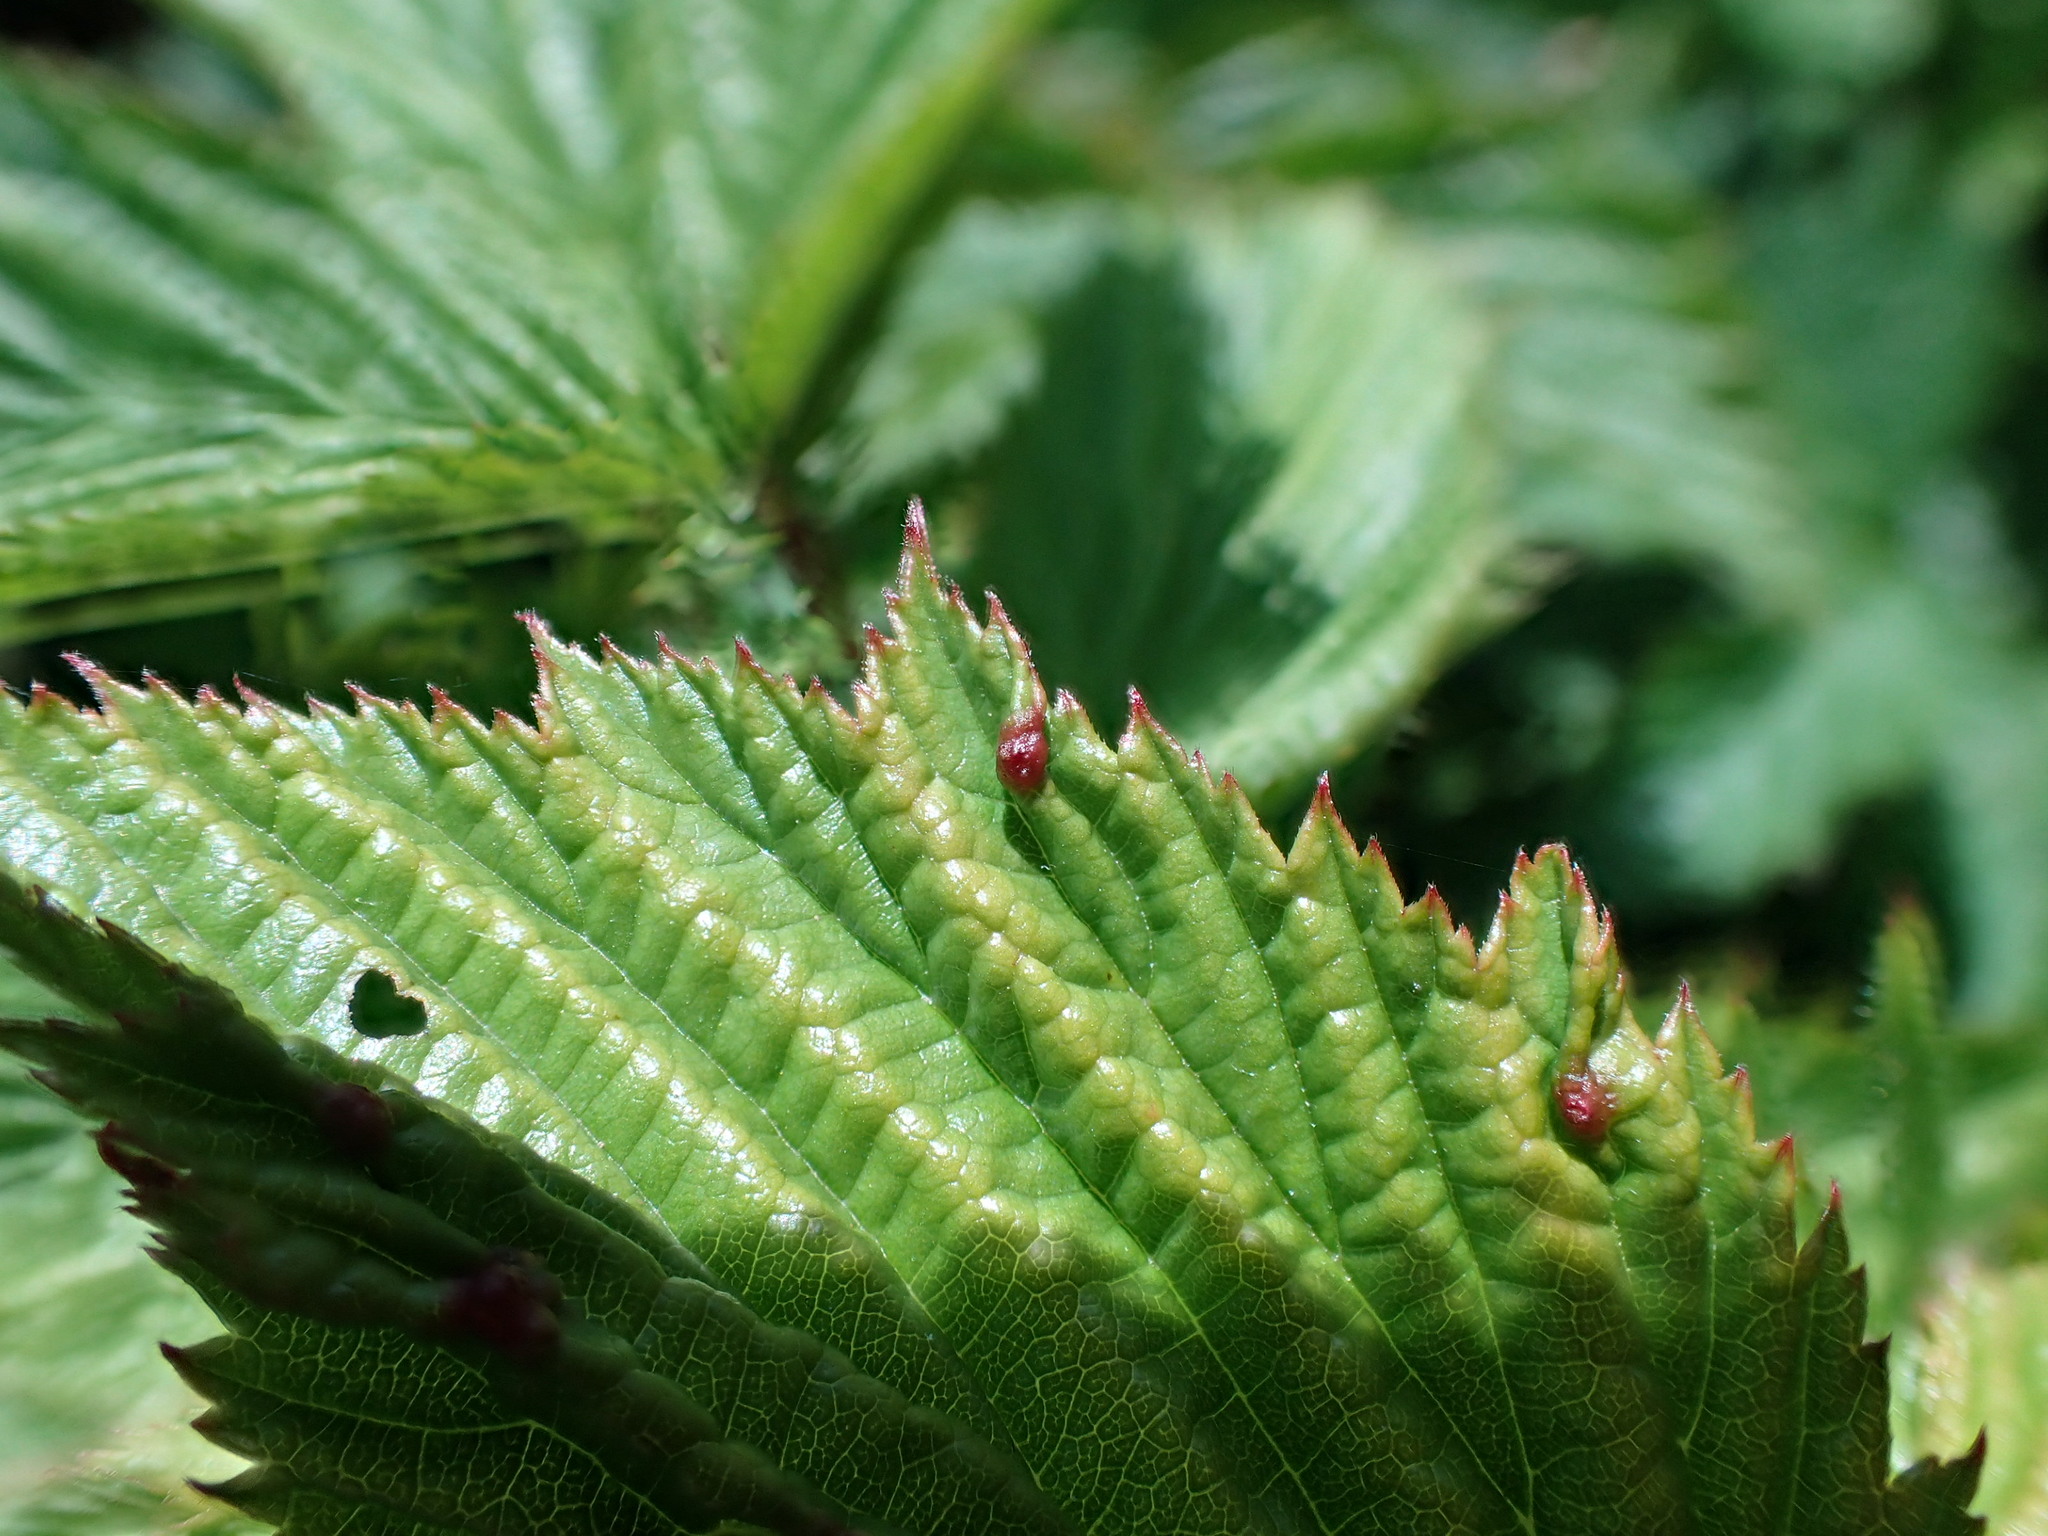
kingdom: Animalia
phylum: Arthropoda
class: Insecta
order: Diptera
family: Cecidomyiidae
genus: Dasineura
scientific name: Dasineura ulmaria
